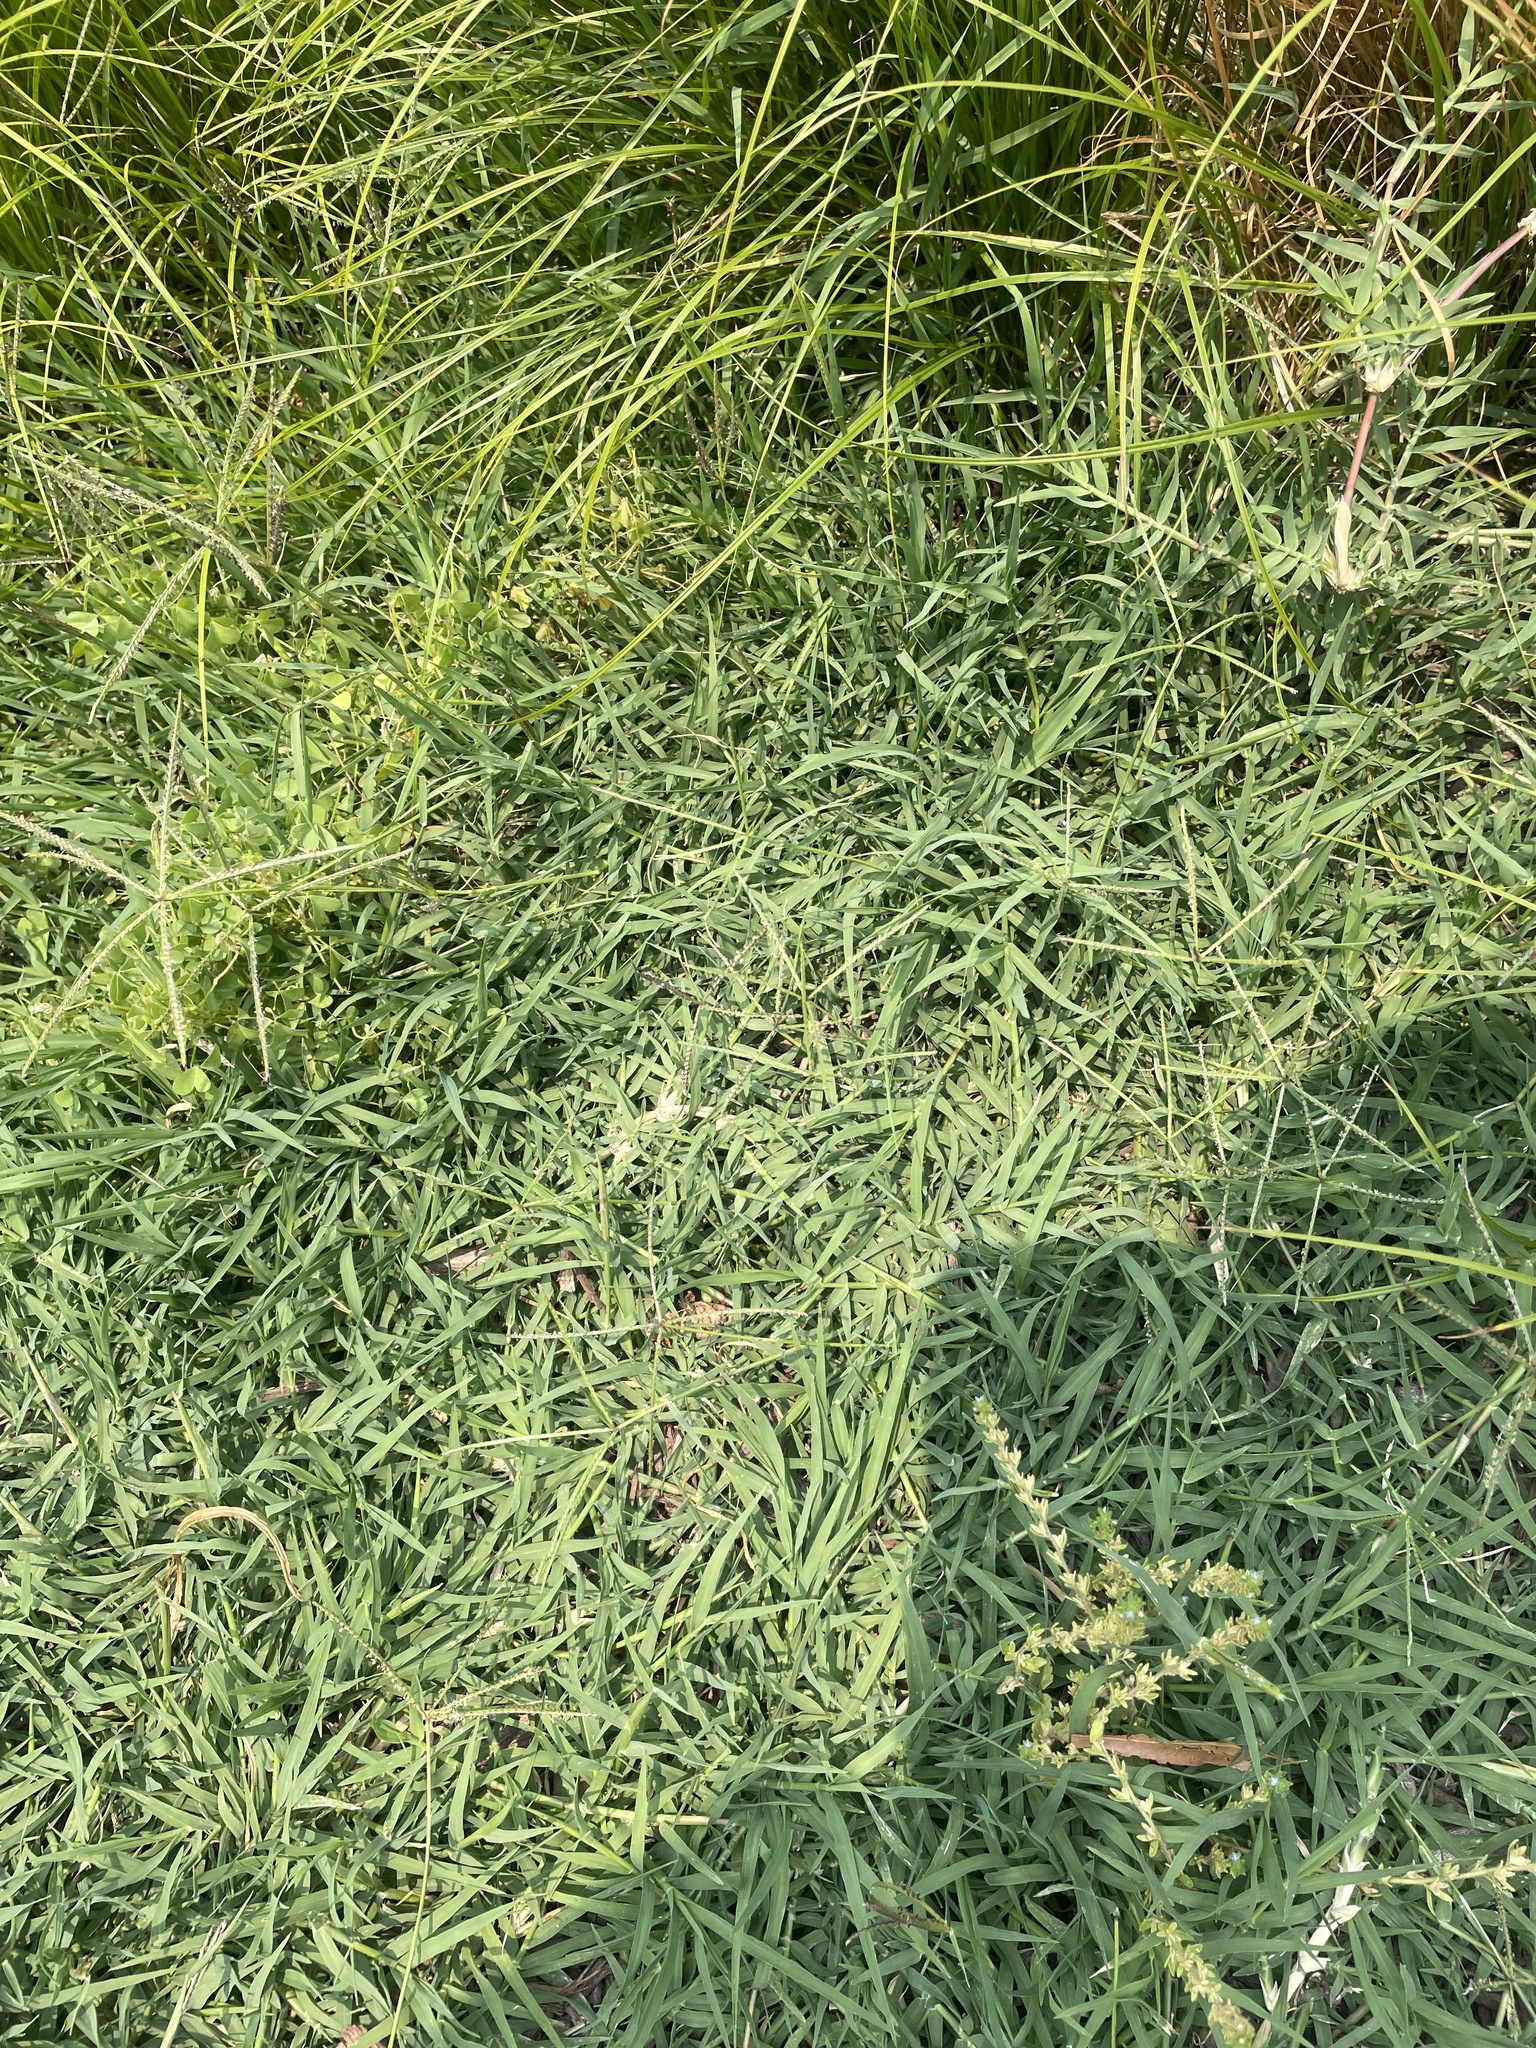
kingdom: Plantae
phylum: Tracheophyta
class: Liliopsida
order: Poales
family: Poaceae
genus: Cynodon
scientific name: Cynodon dactylon
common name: Bermuda grass
